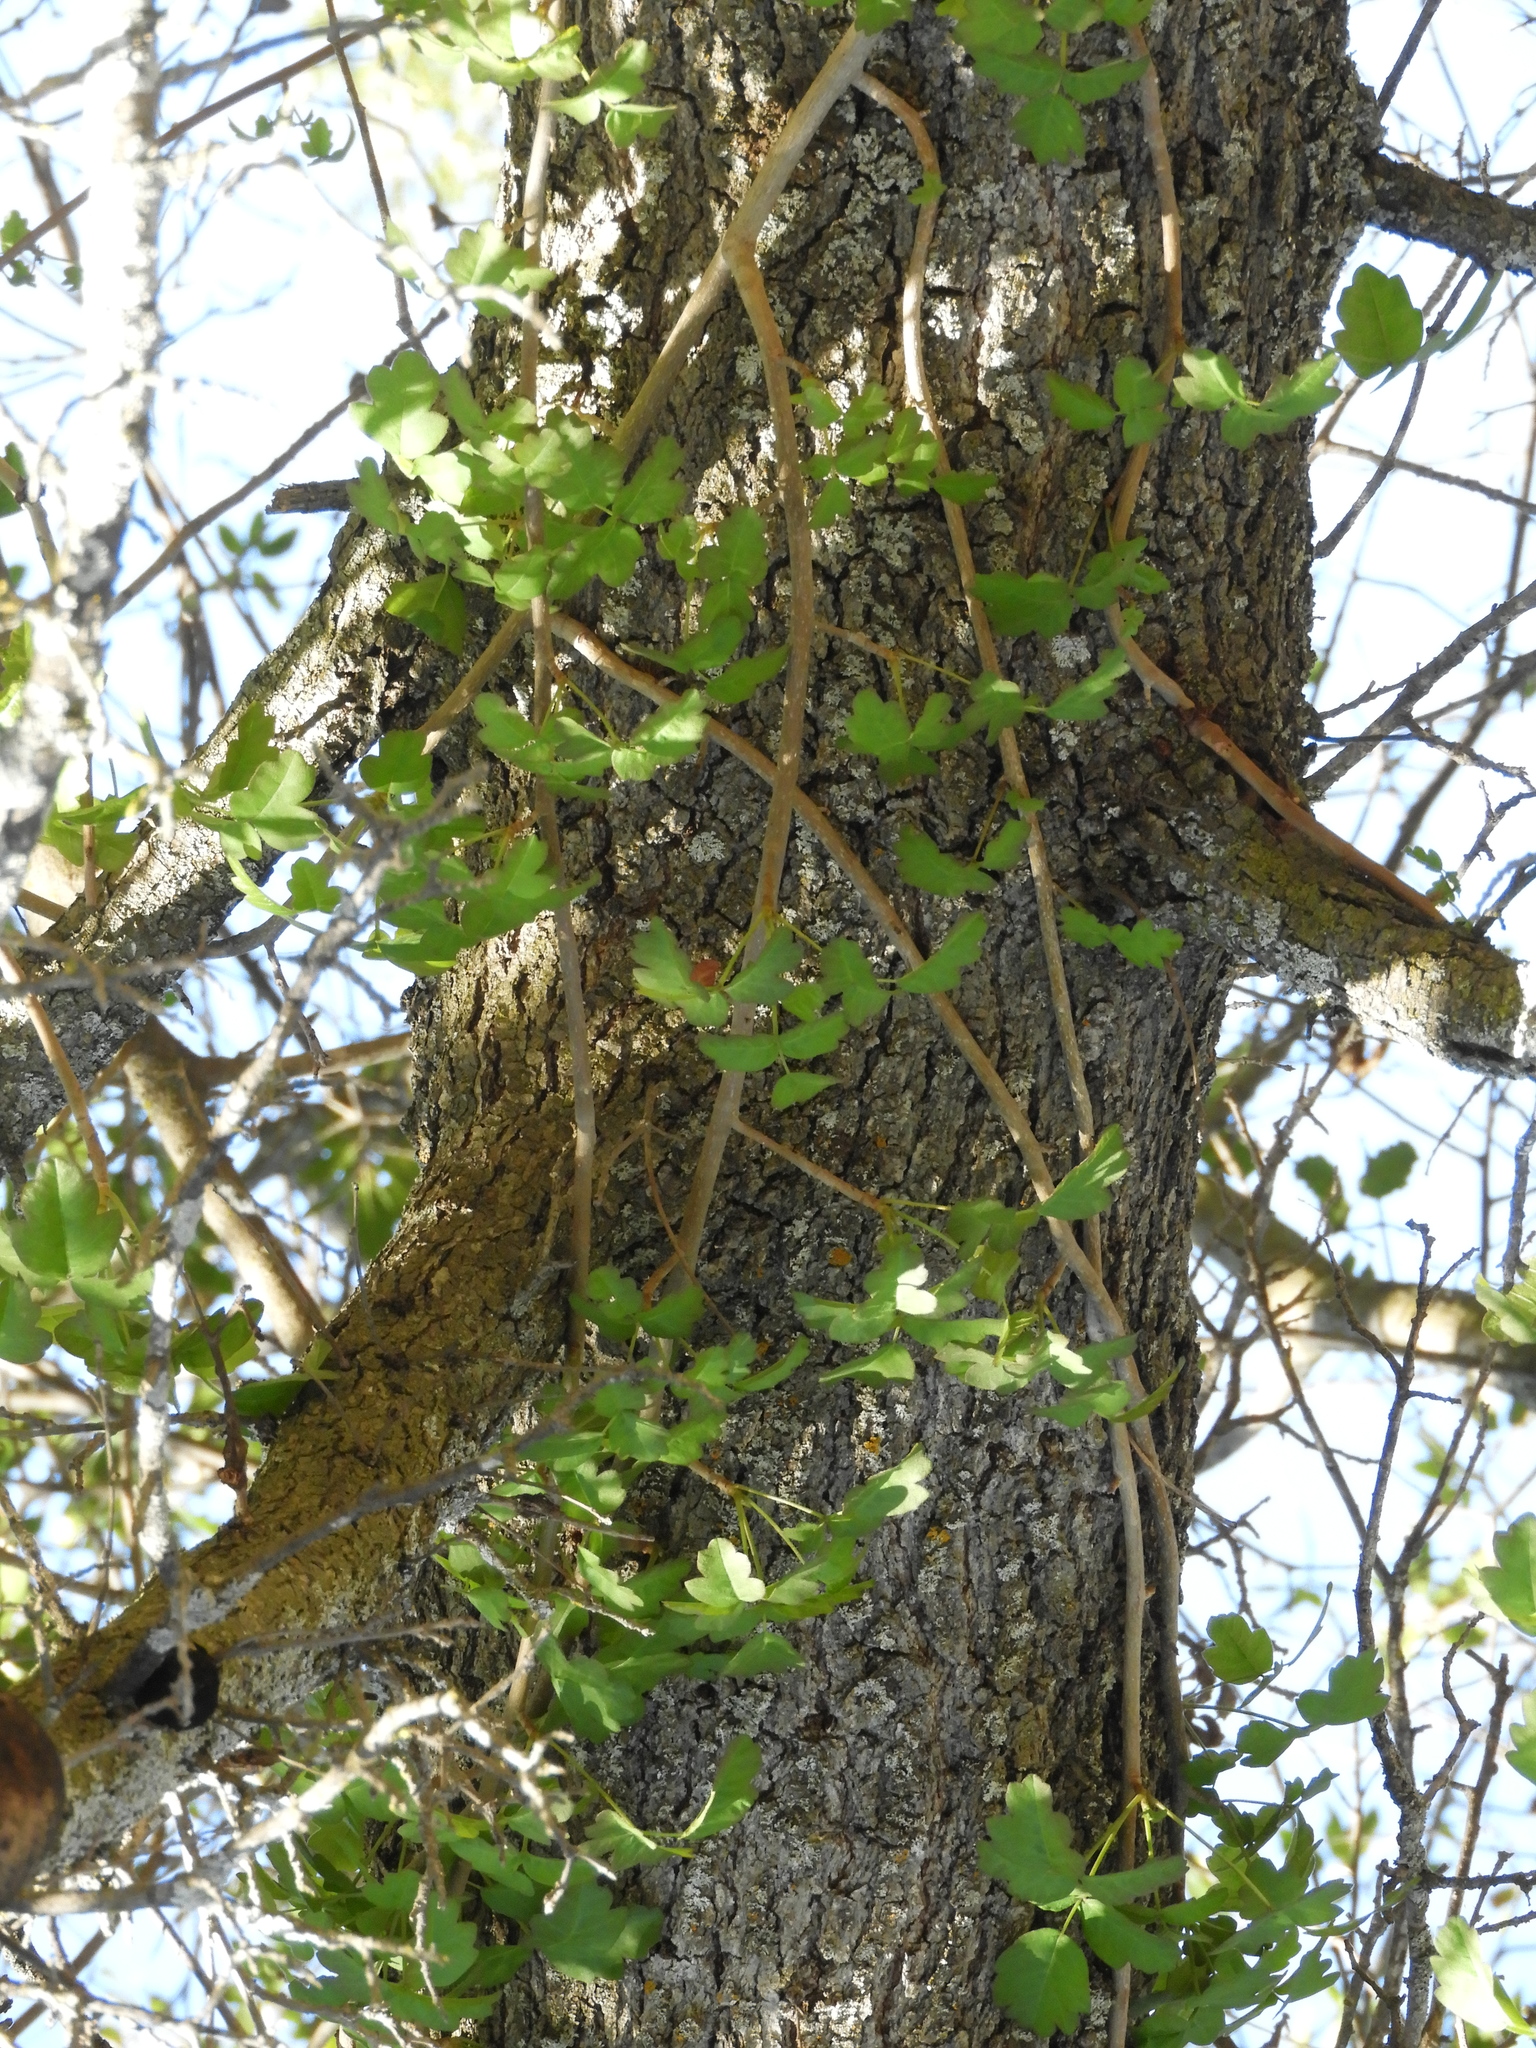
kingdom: Plantae
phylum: Tracheophyta
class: Magnoliopsida
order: Sapindales
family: Anacardiaceae
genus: Toxicodendron
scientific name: Toxicodendron diversilobum
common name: Pacific poison-oak
